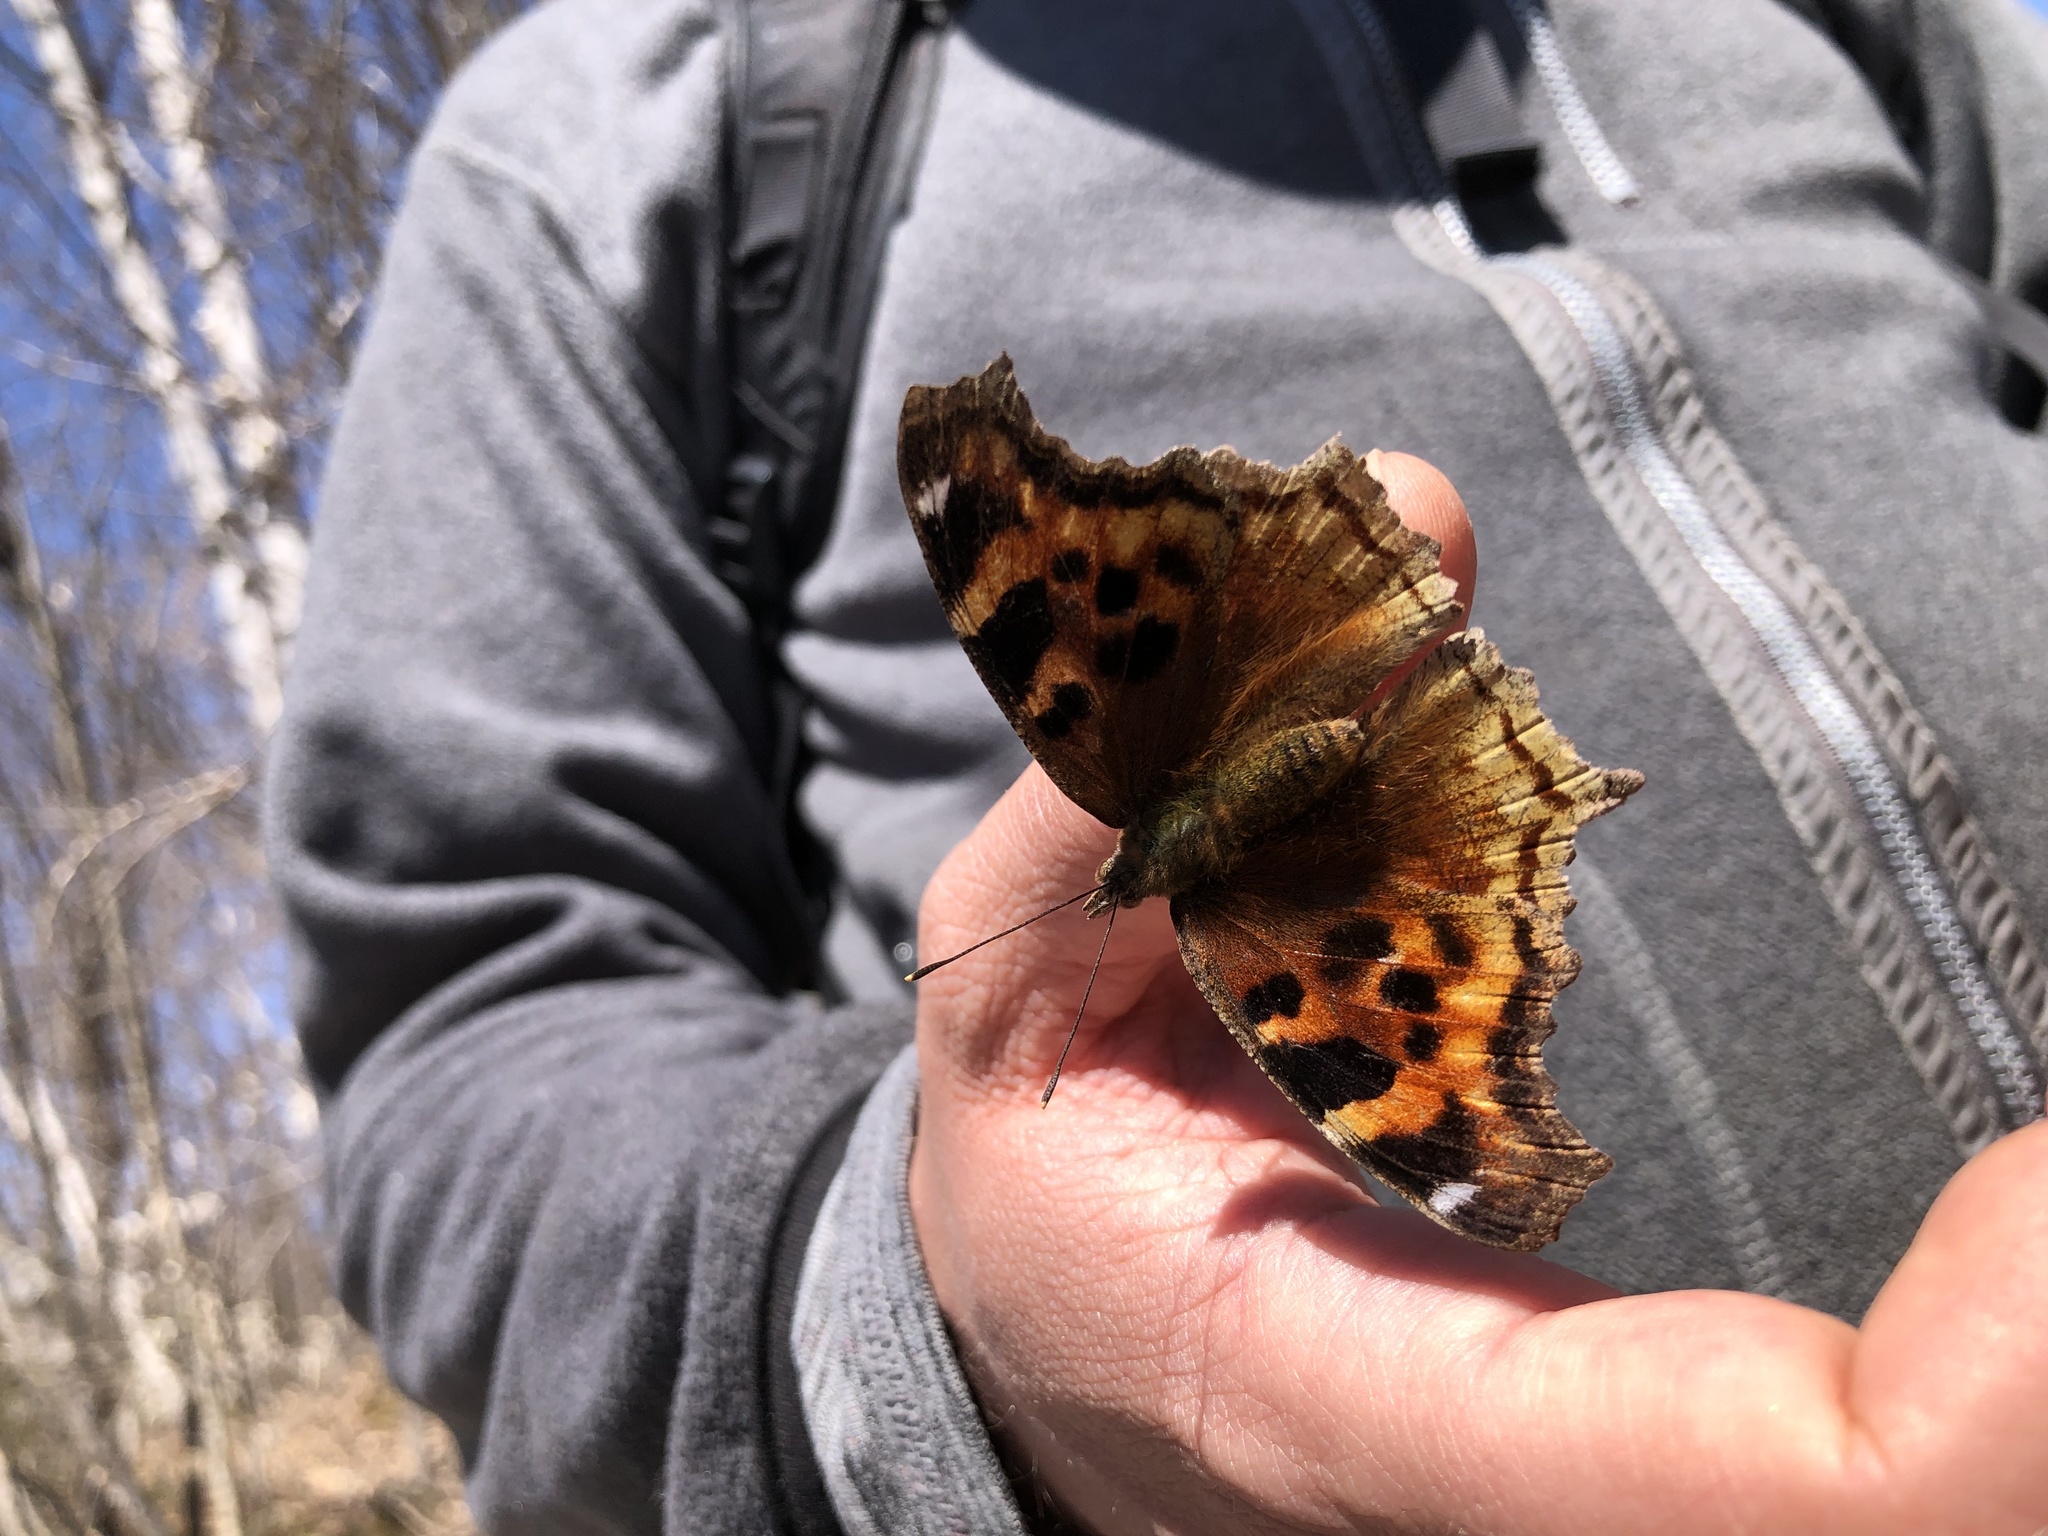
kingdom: Animalia
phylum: Arthropoda
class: Insecta
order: Lepidoptera
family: Nymphalidae
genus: Polygonia
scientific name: Polygonia vaualbum
